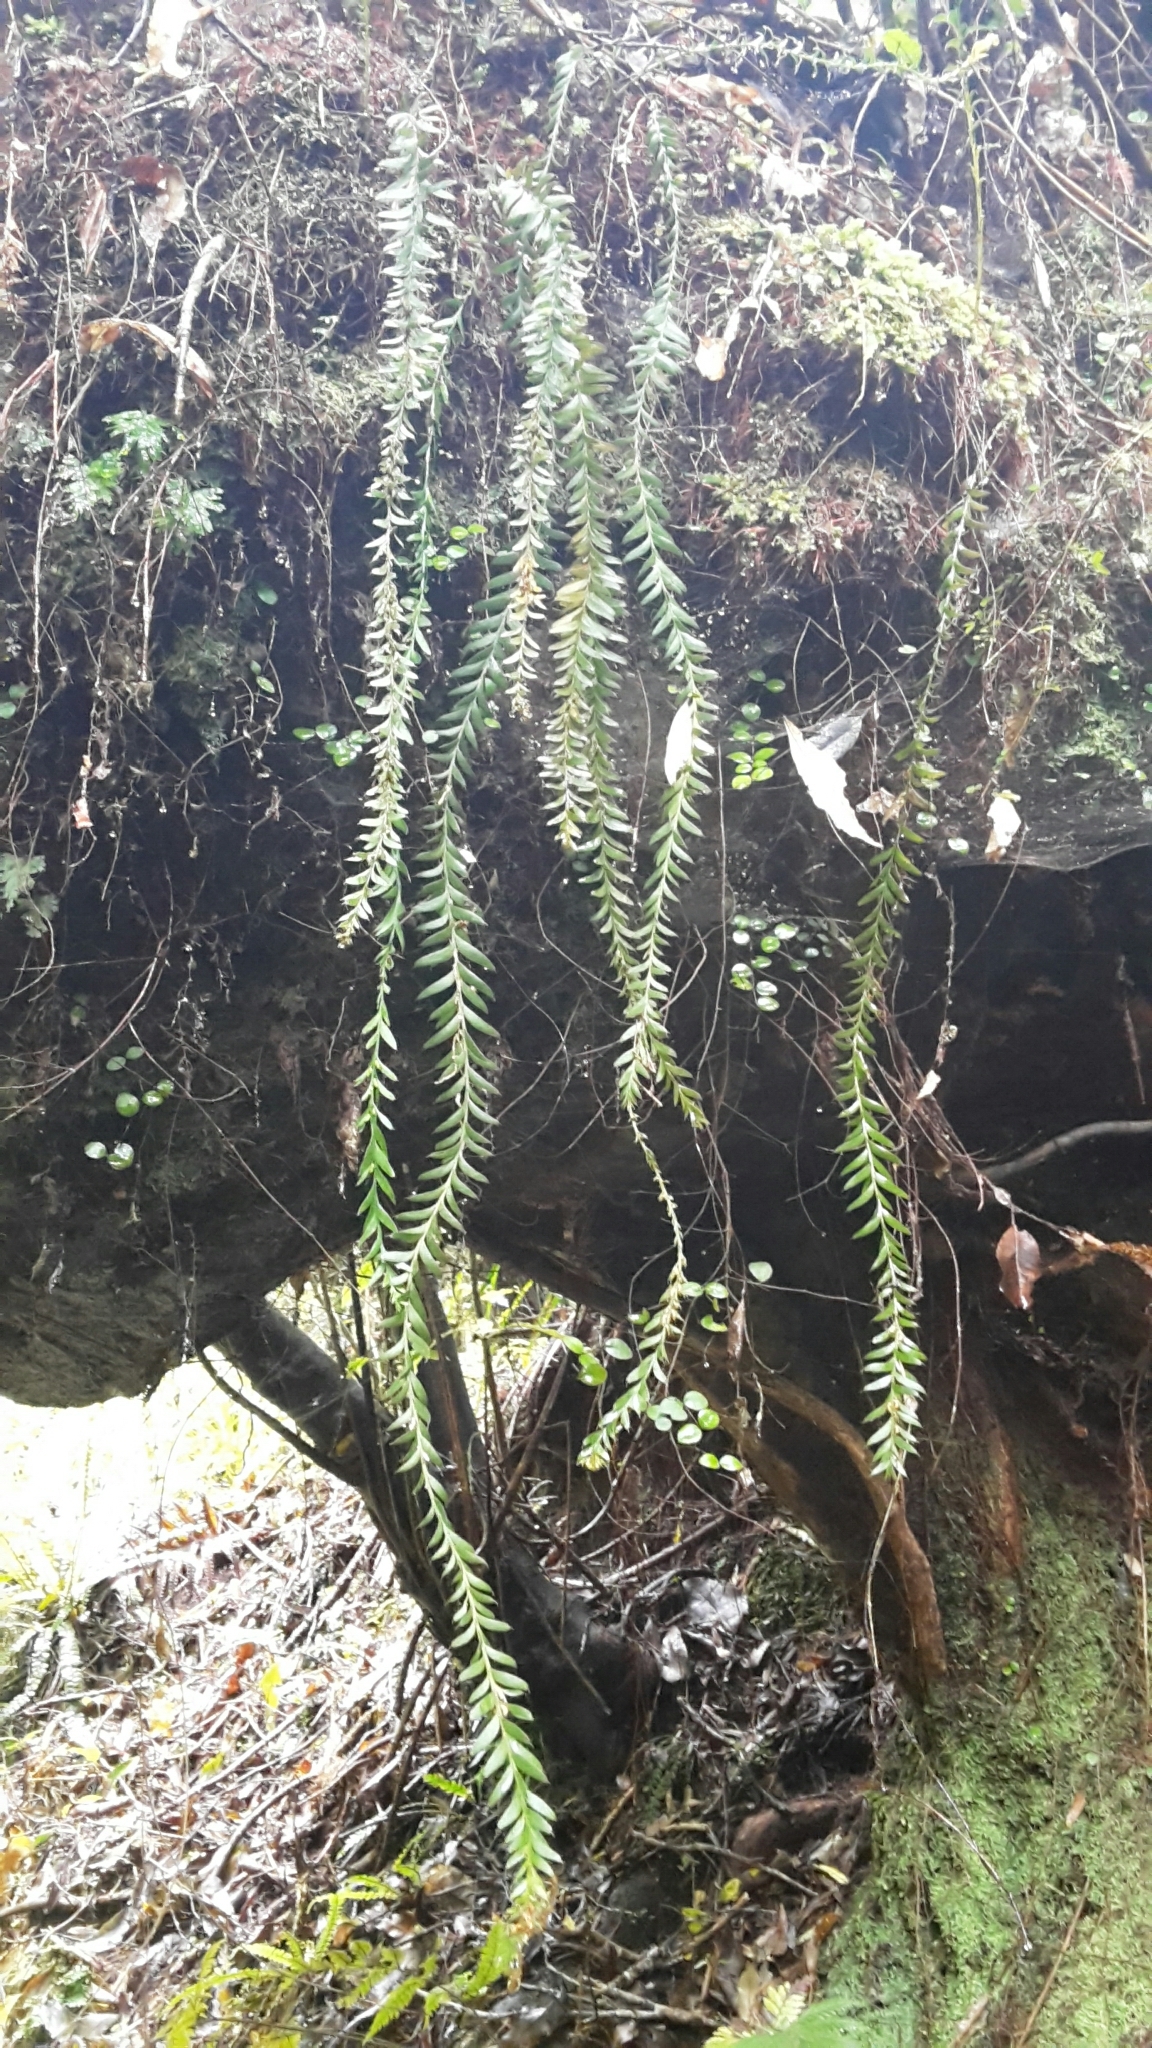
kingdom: Plantae
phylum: Tracheophyta
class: Polypodiopsida
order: Psilotales
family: Psilotaceae
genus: Tmesipteris
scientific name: Tmesipteris tannensis
